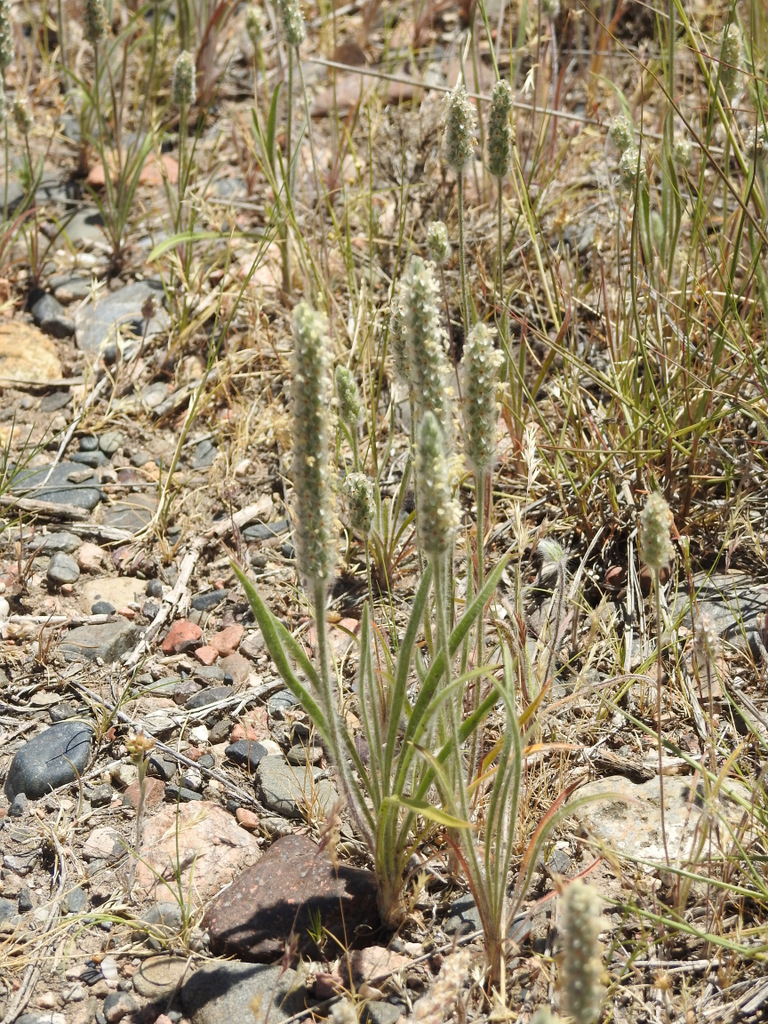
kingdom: Plantae
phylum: Tracheophyta
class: Magnoliopsida
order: Lamiales
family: Plantaginaceae
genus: Plantago
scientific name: Plantago patagonica
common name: Patagonia indian-wheat
